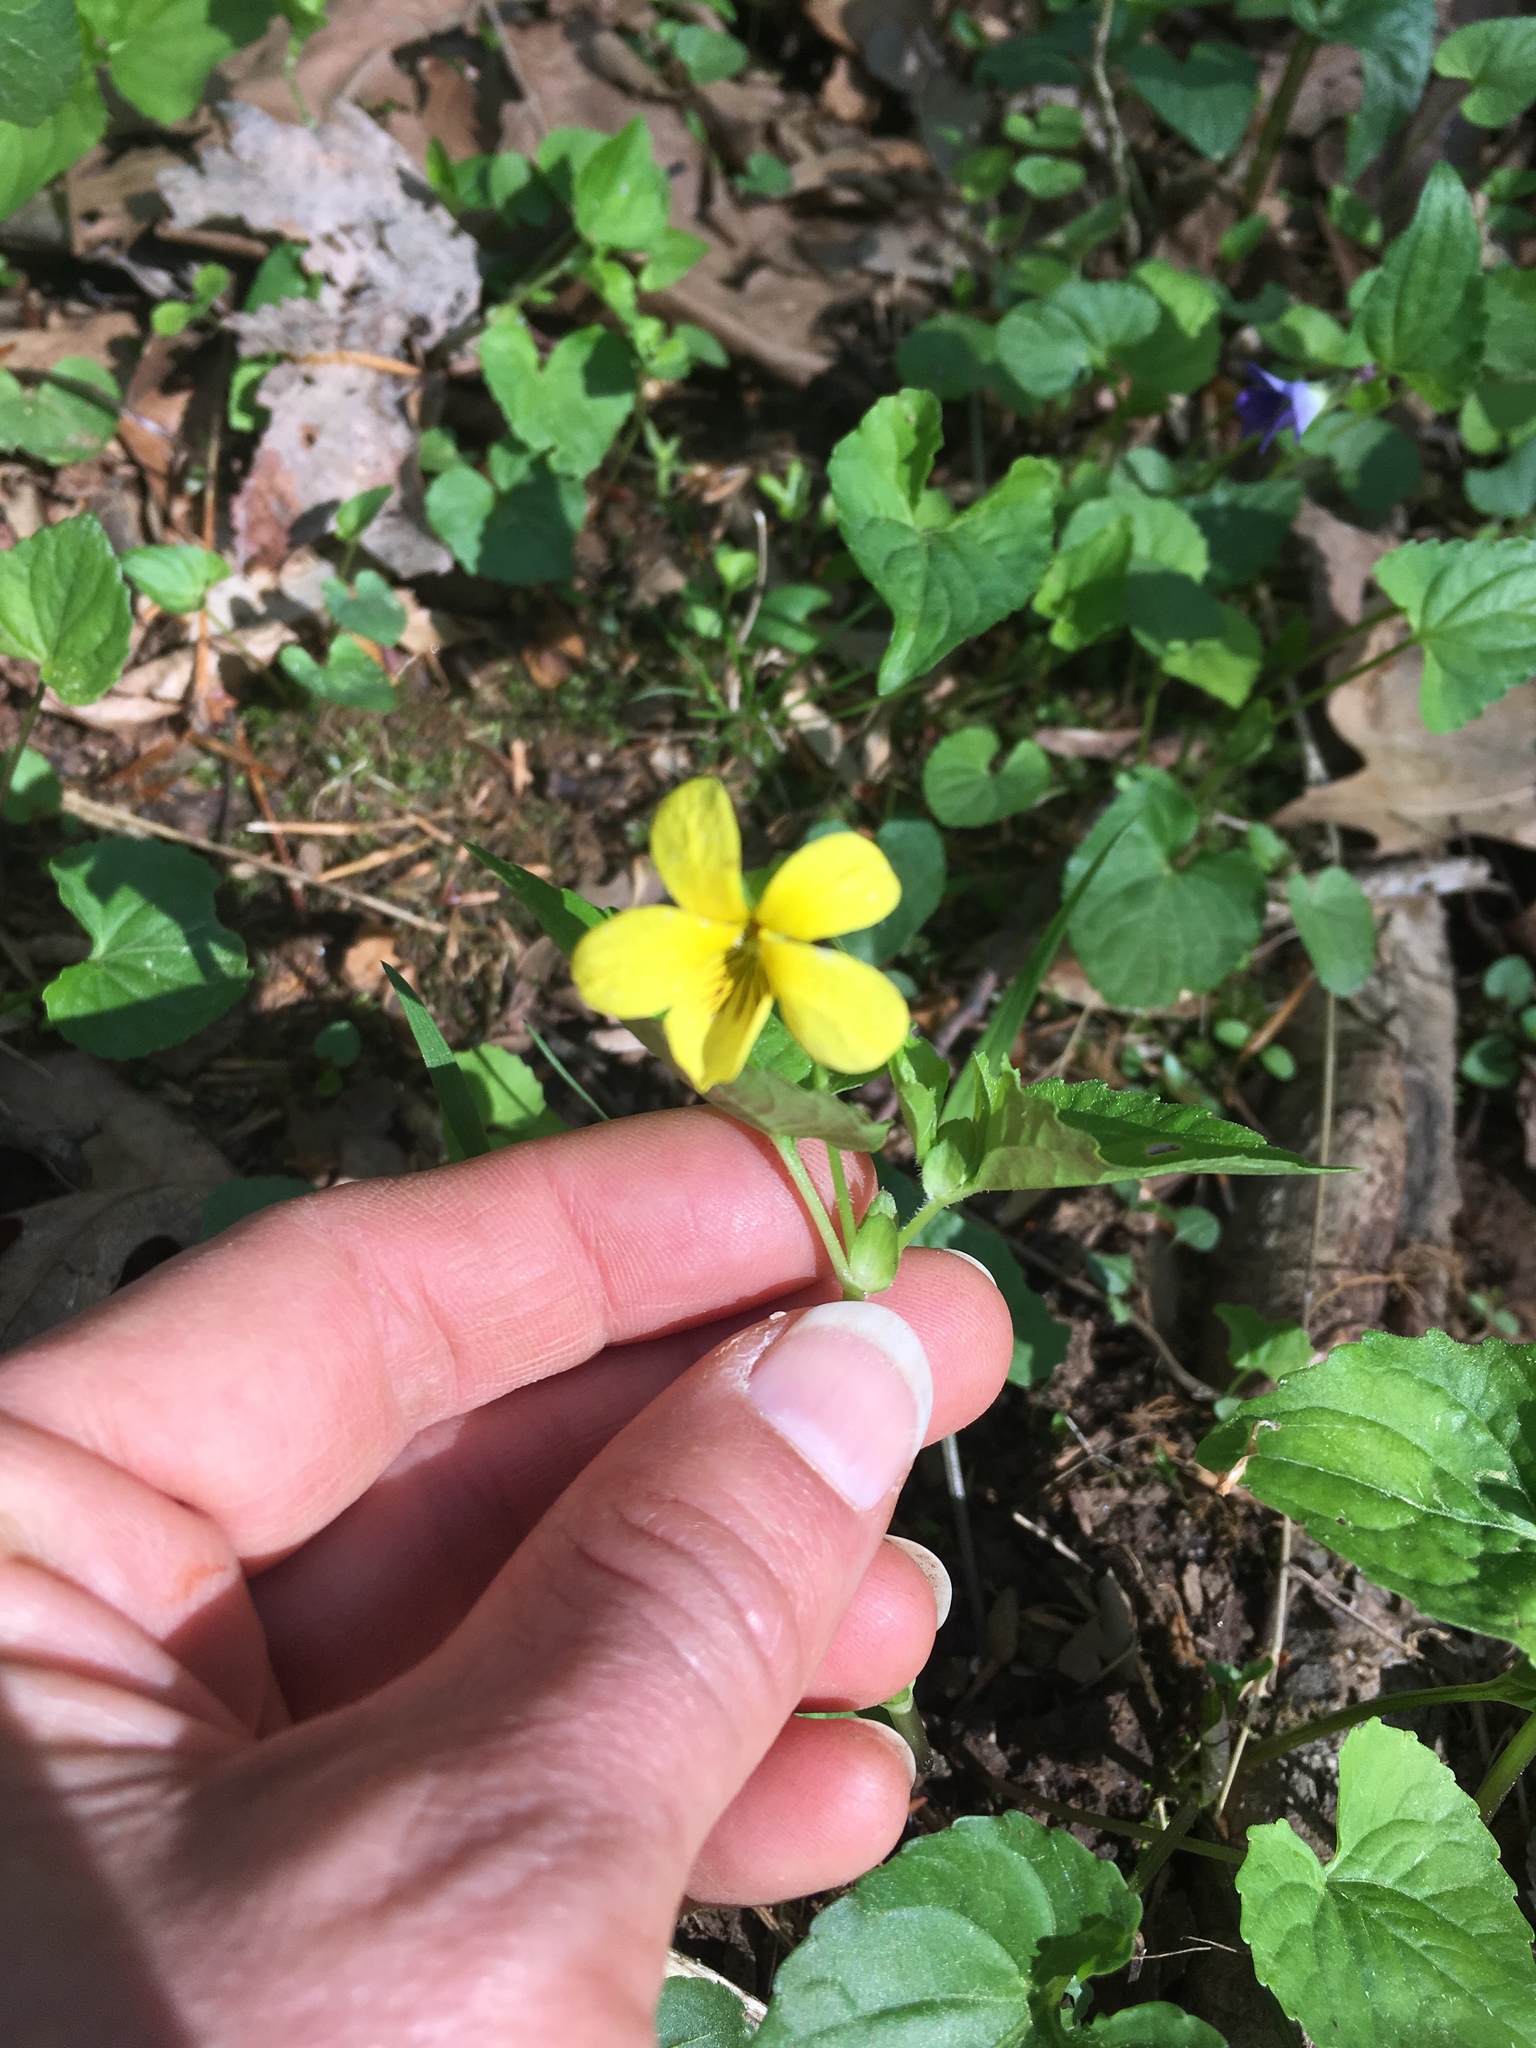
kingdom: Plantae
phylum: Tracheophyta
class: Magnoliopsida
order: Malpighiales
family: Violaceae
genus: Viola
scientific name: Viola eriocarpa
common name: Smooth yellow violet
